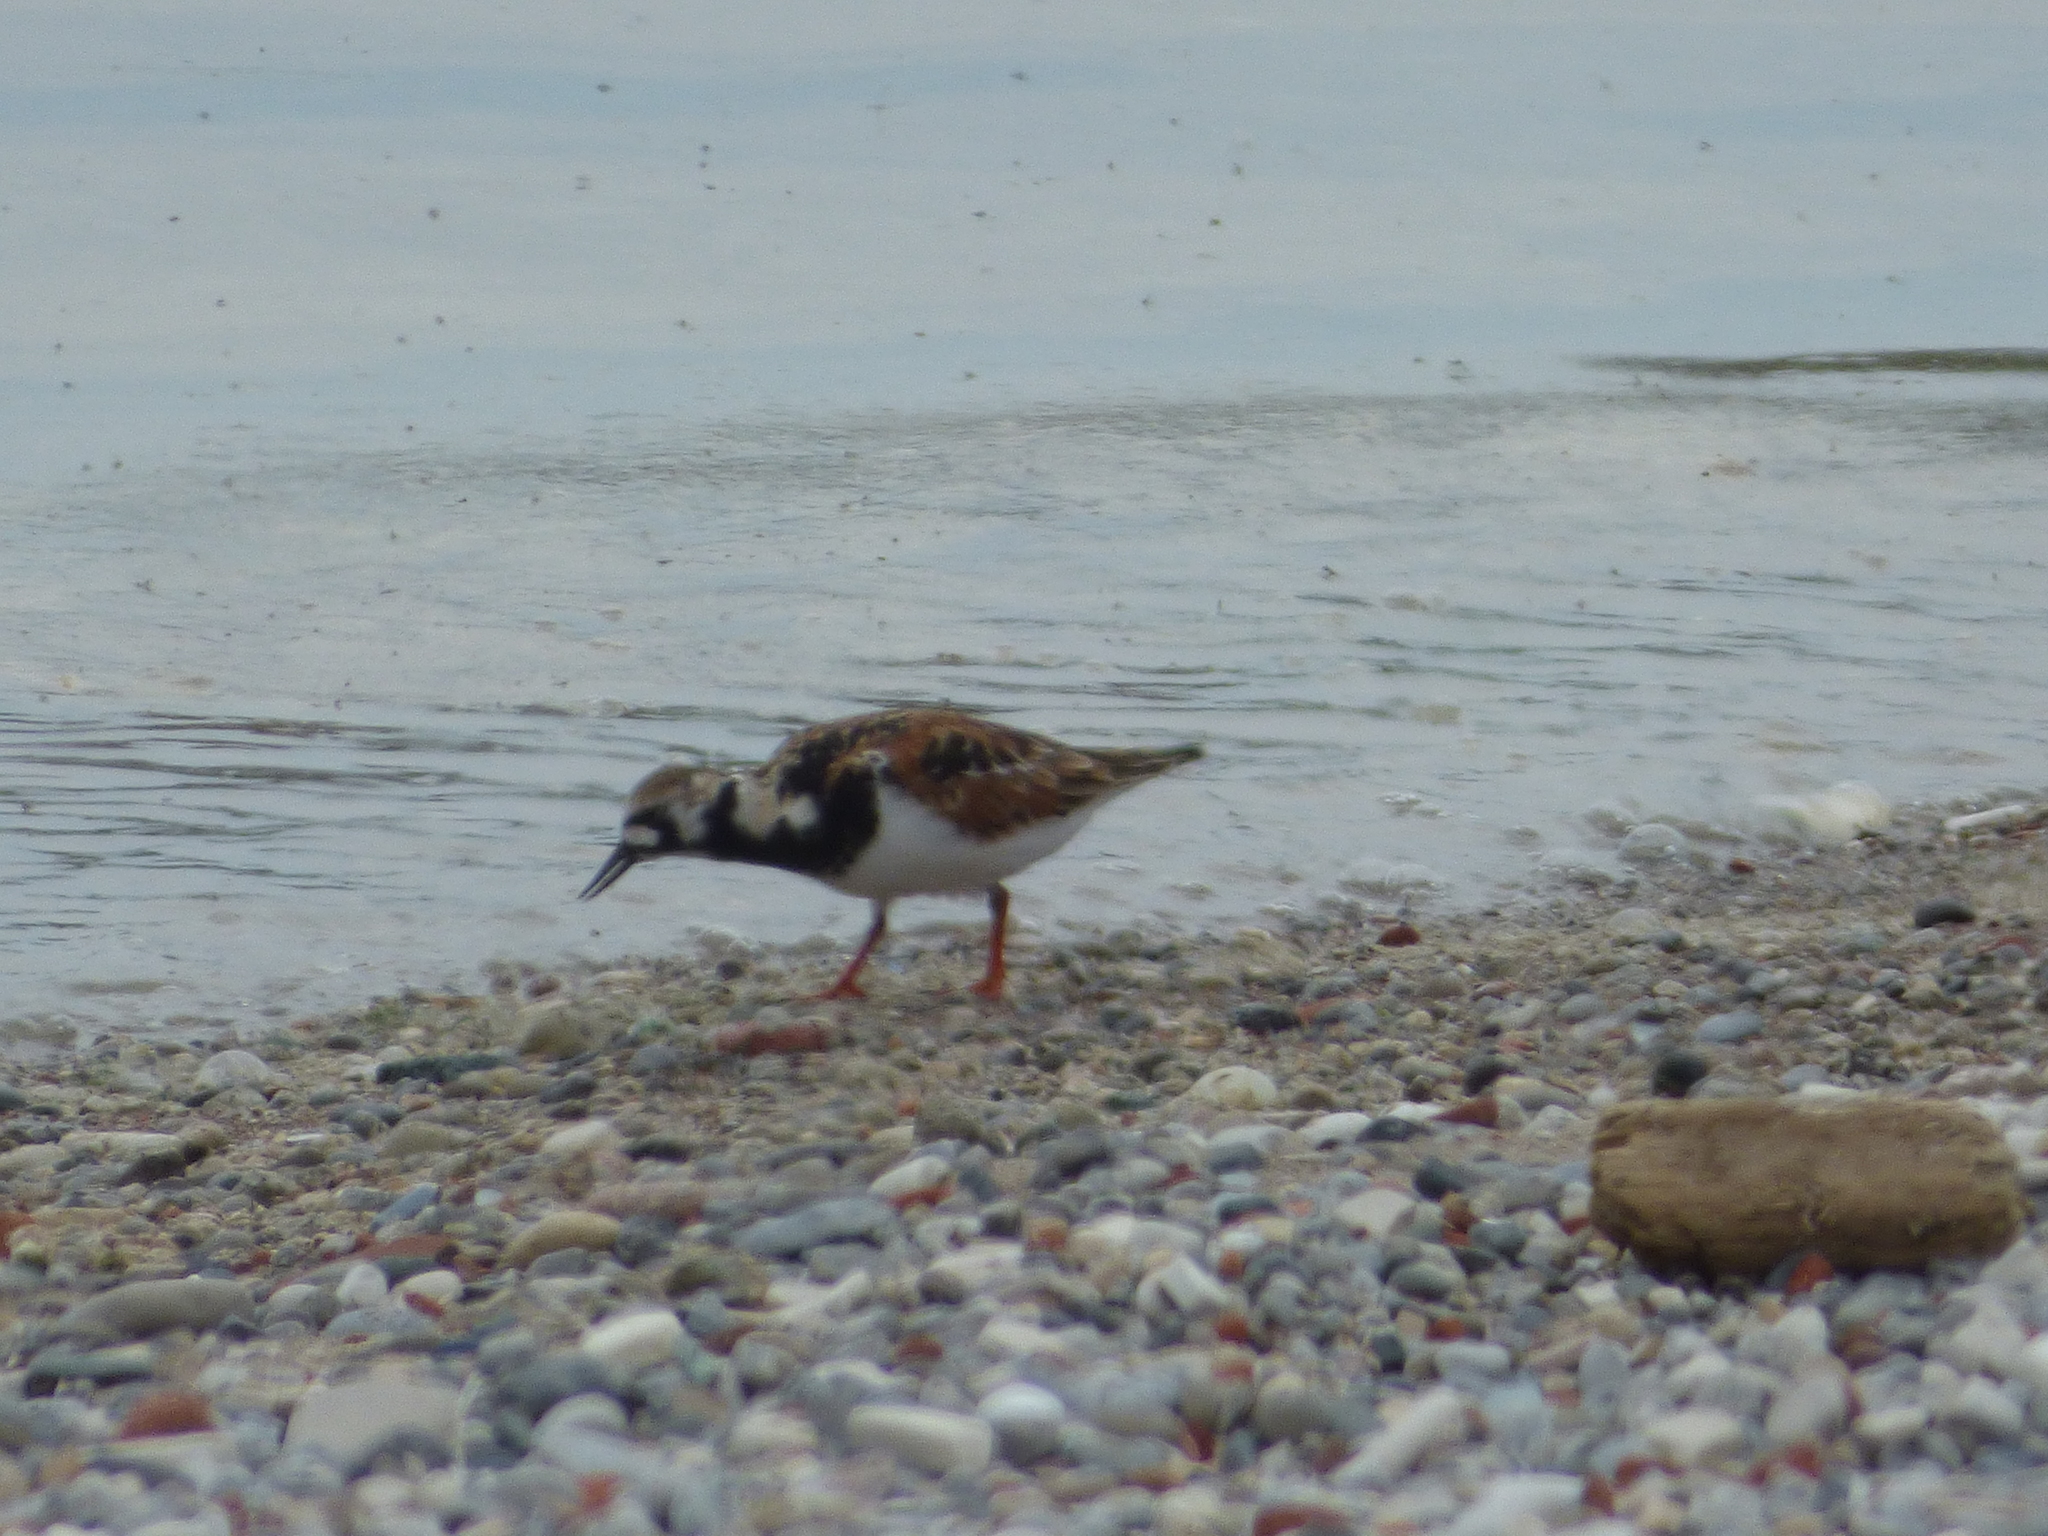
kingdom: Animalia
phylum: Chordata
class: Aves
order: Charadriiformes
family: Scolopacidae
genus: Arenaria
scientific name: Arenaria interpres
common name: Ruddy turnstone
